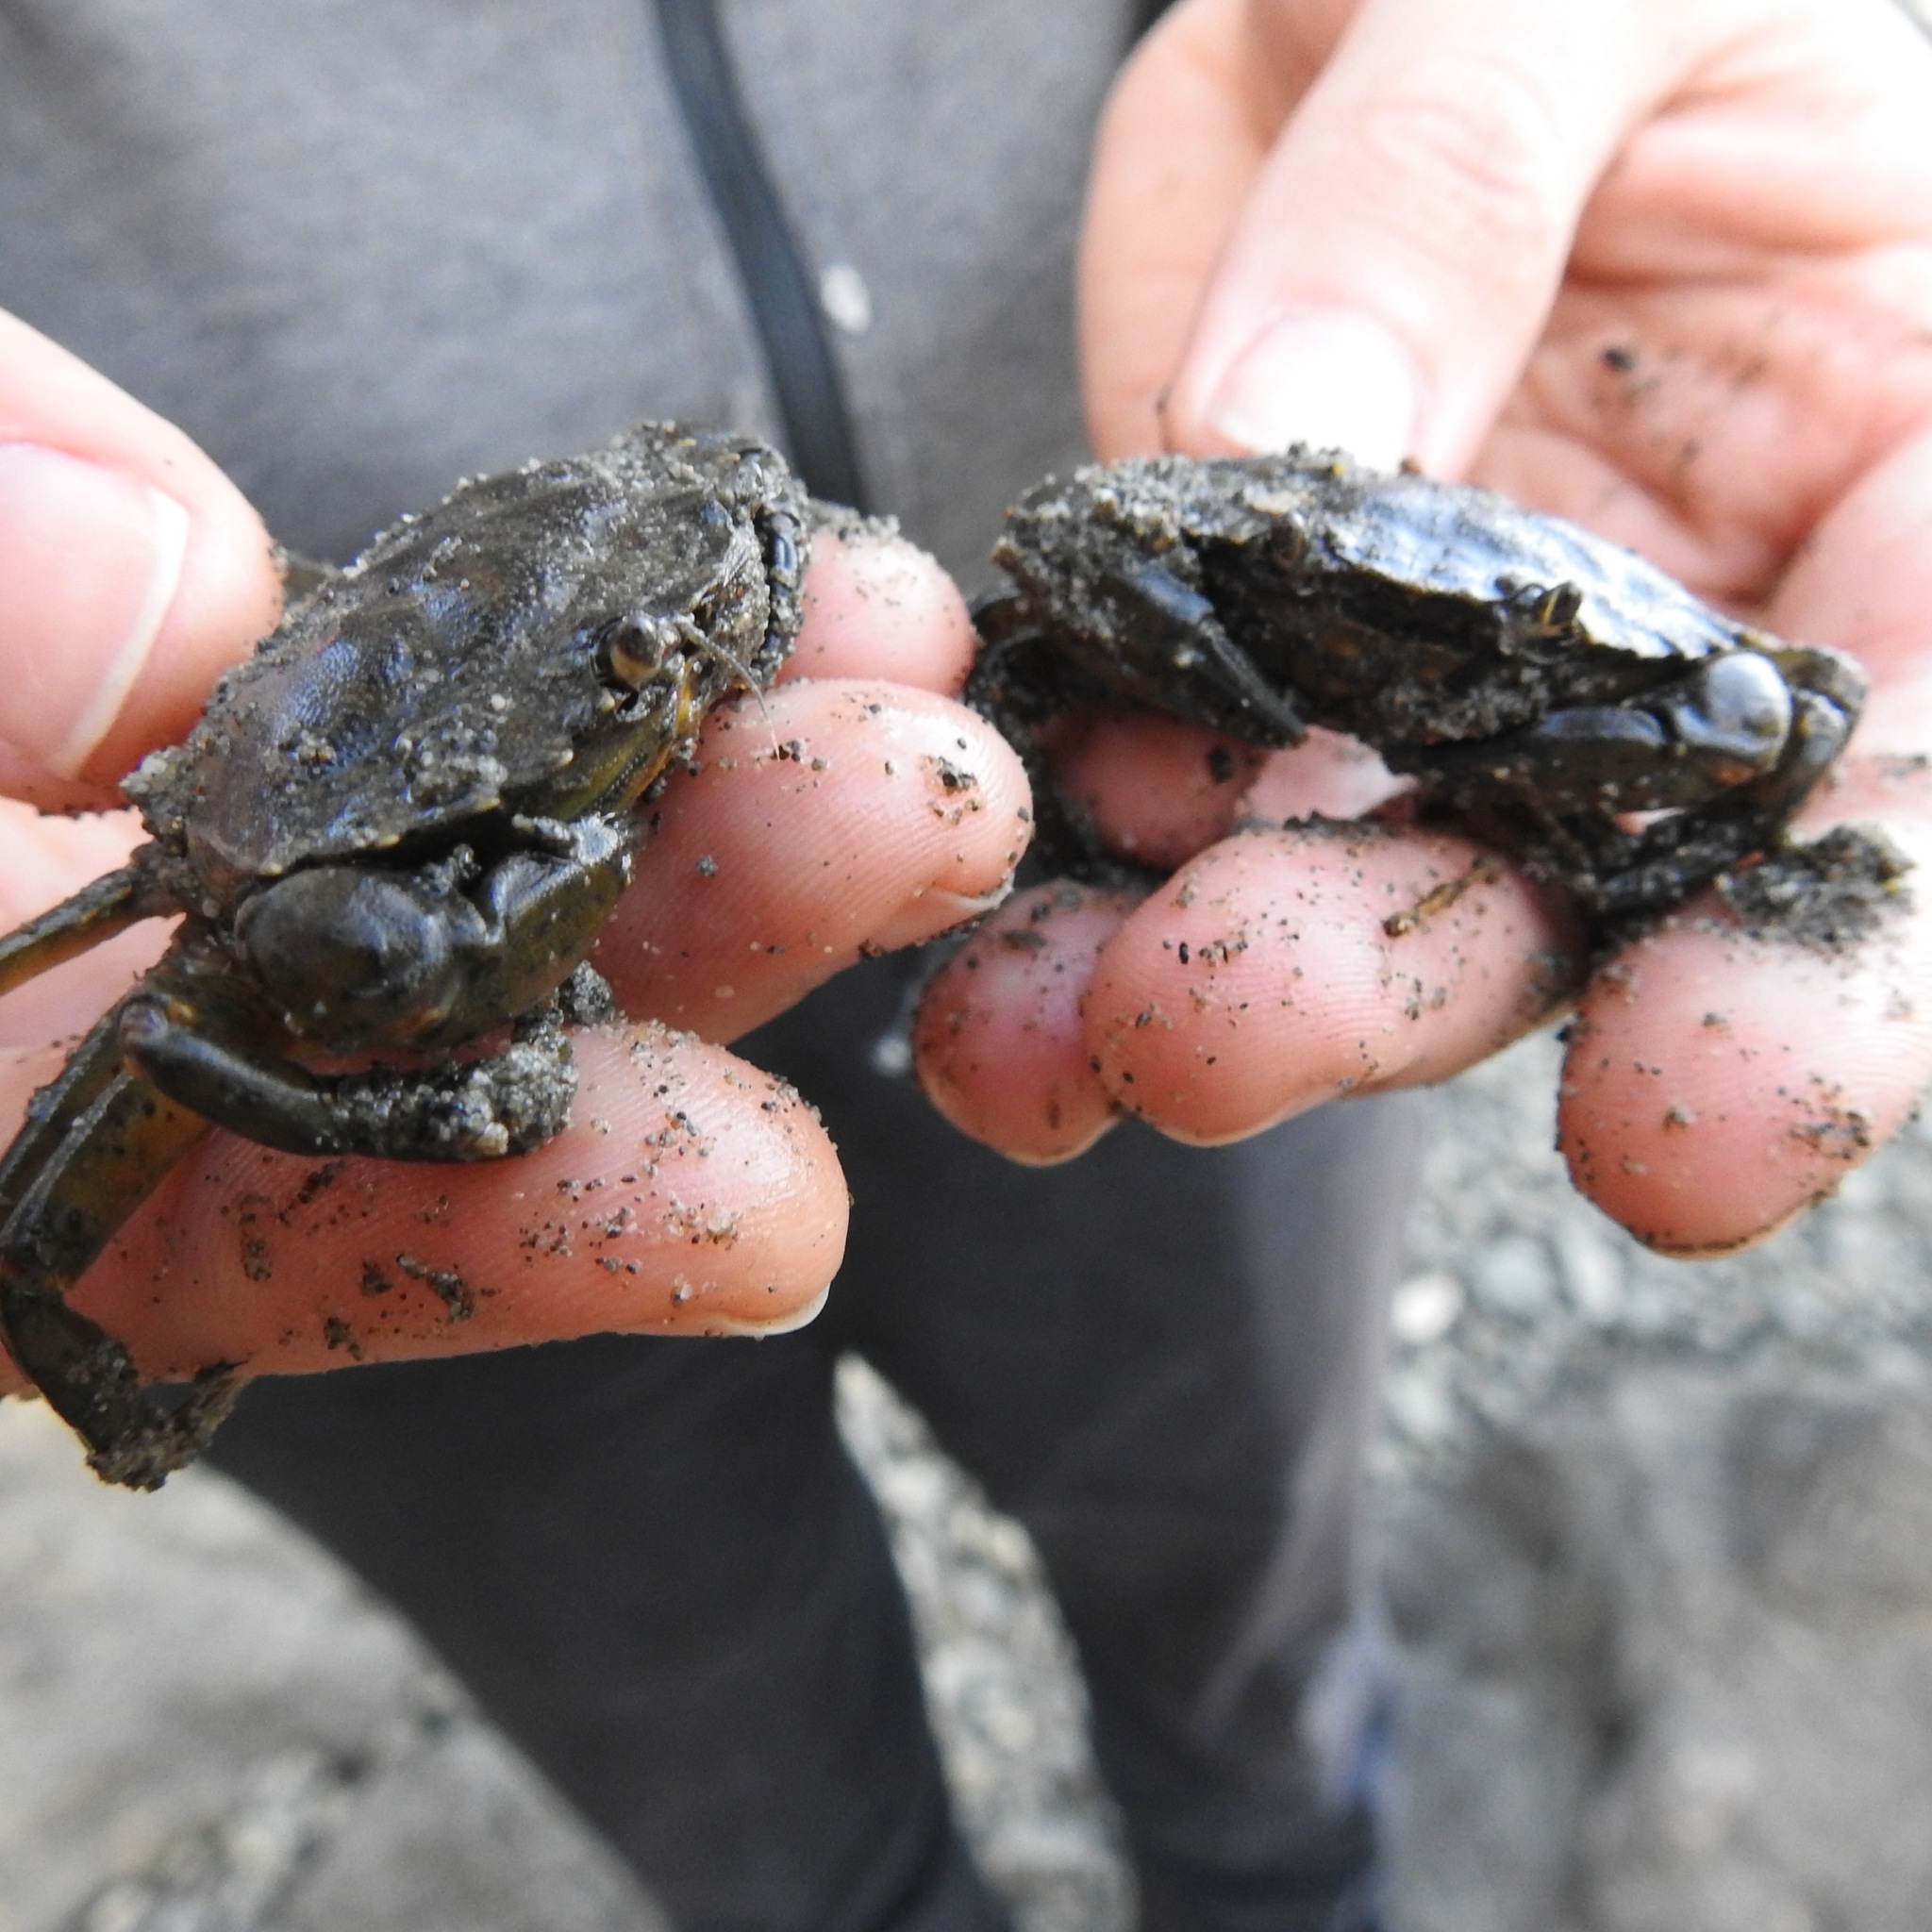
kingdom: Animalia
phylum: Arthropoda
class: Malacostraca
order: Decapoda
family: Carcinidae
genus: Carcinus
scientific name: Carcinus maenas
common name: European green crab
